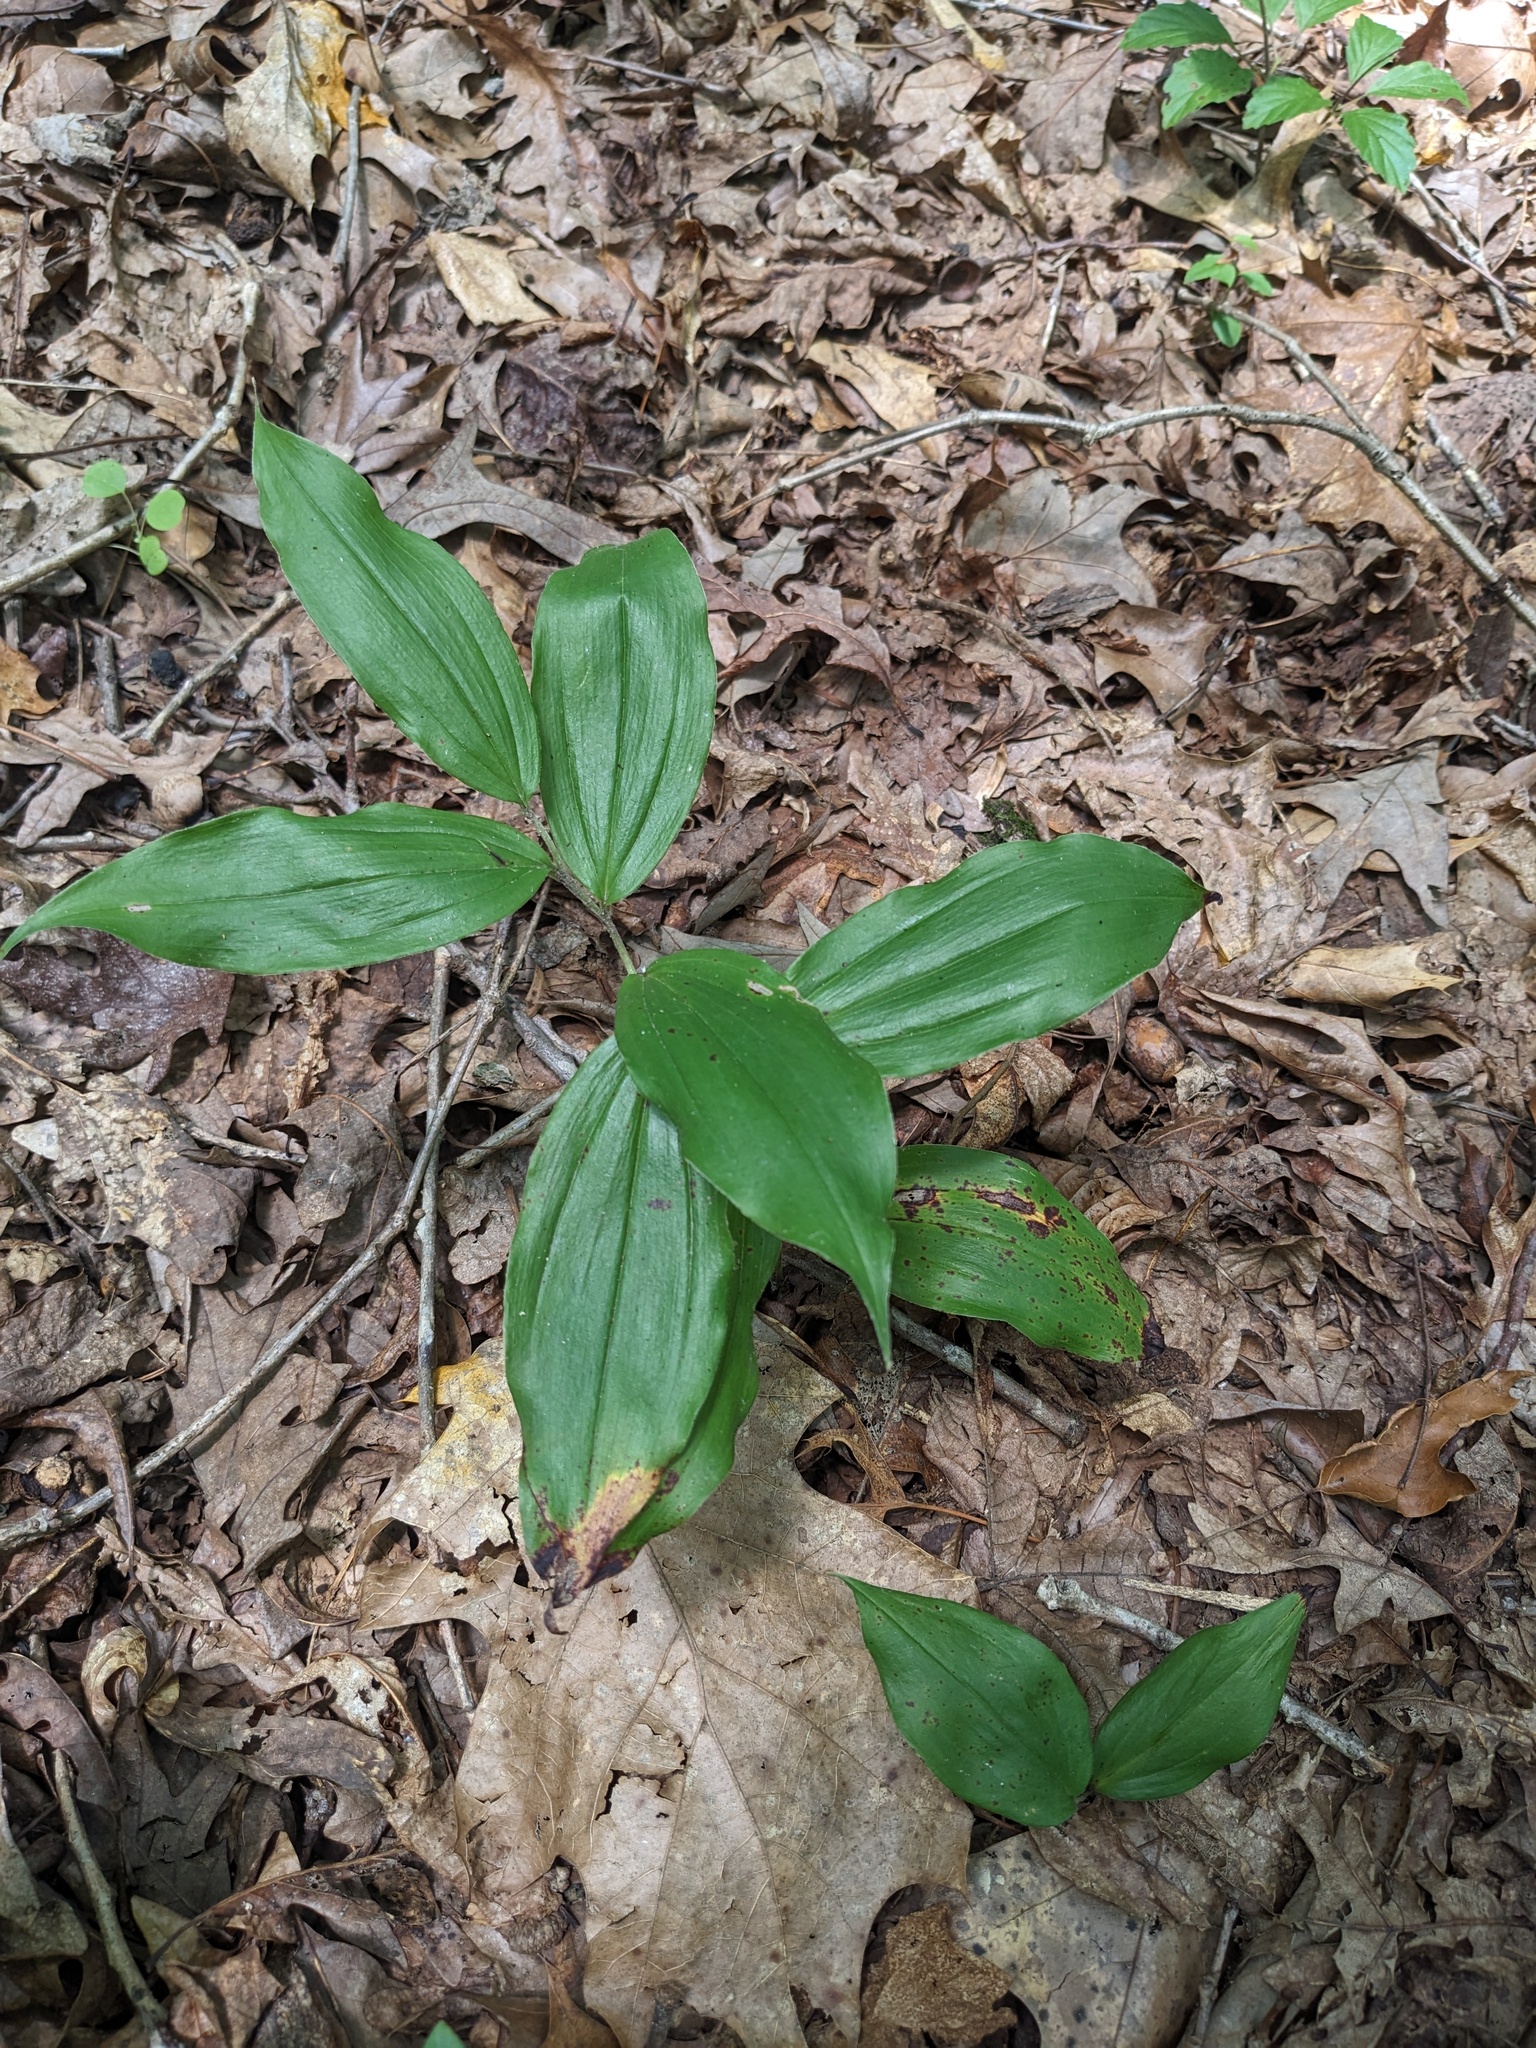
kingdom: Plantae
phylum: Tracheophyta
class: Liliopsida
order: Asparagales
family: Asparagaceae
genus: Maianthemum
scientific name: Maianthemum racemosum
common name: False spikenard
